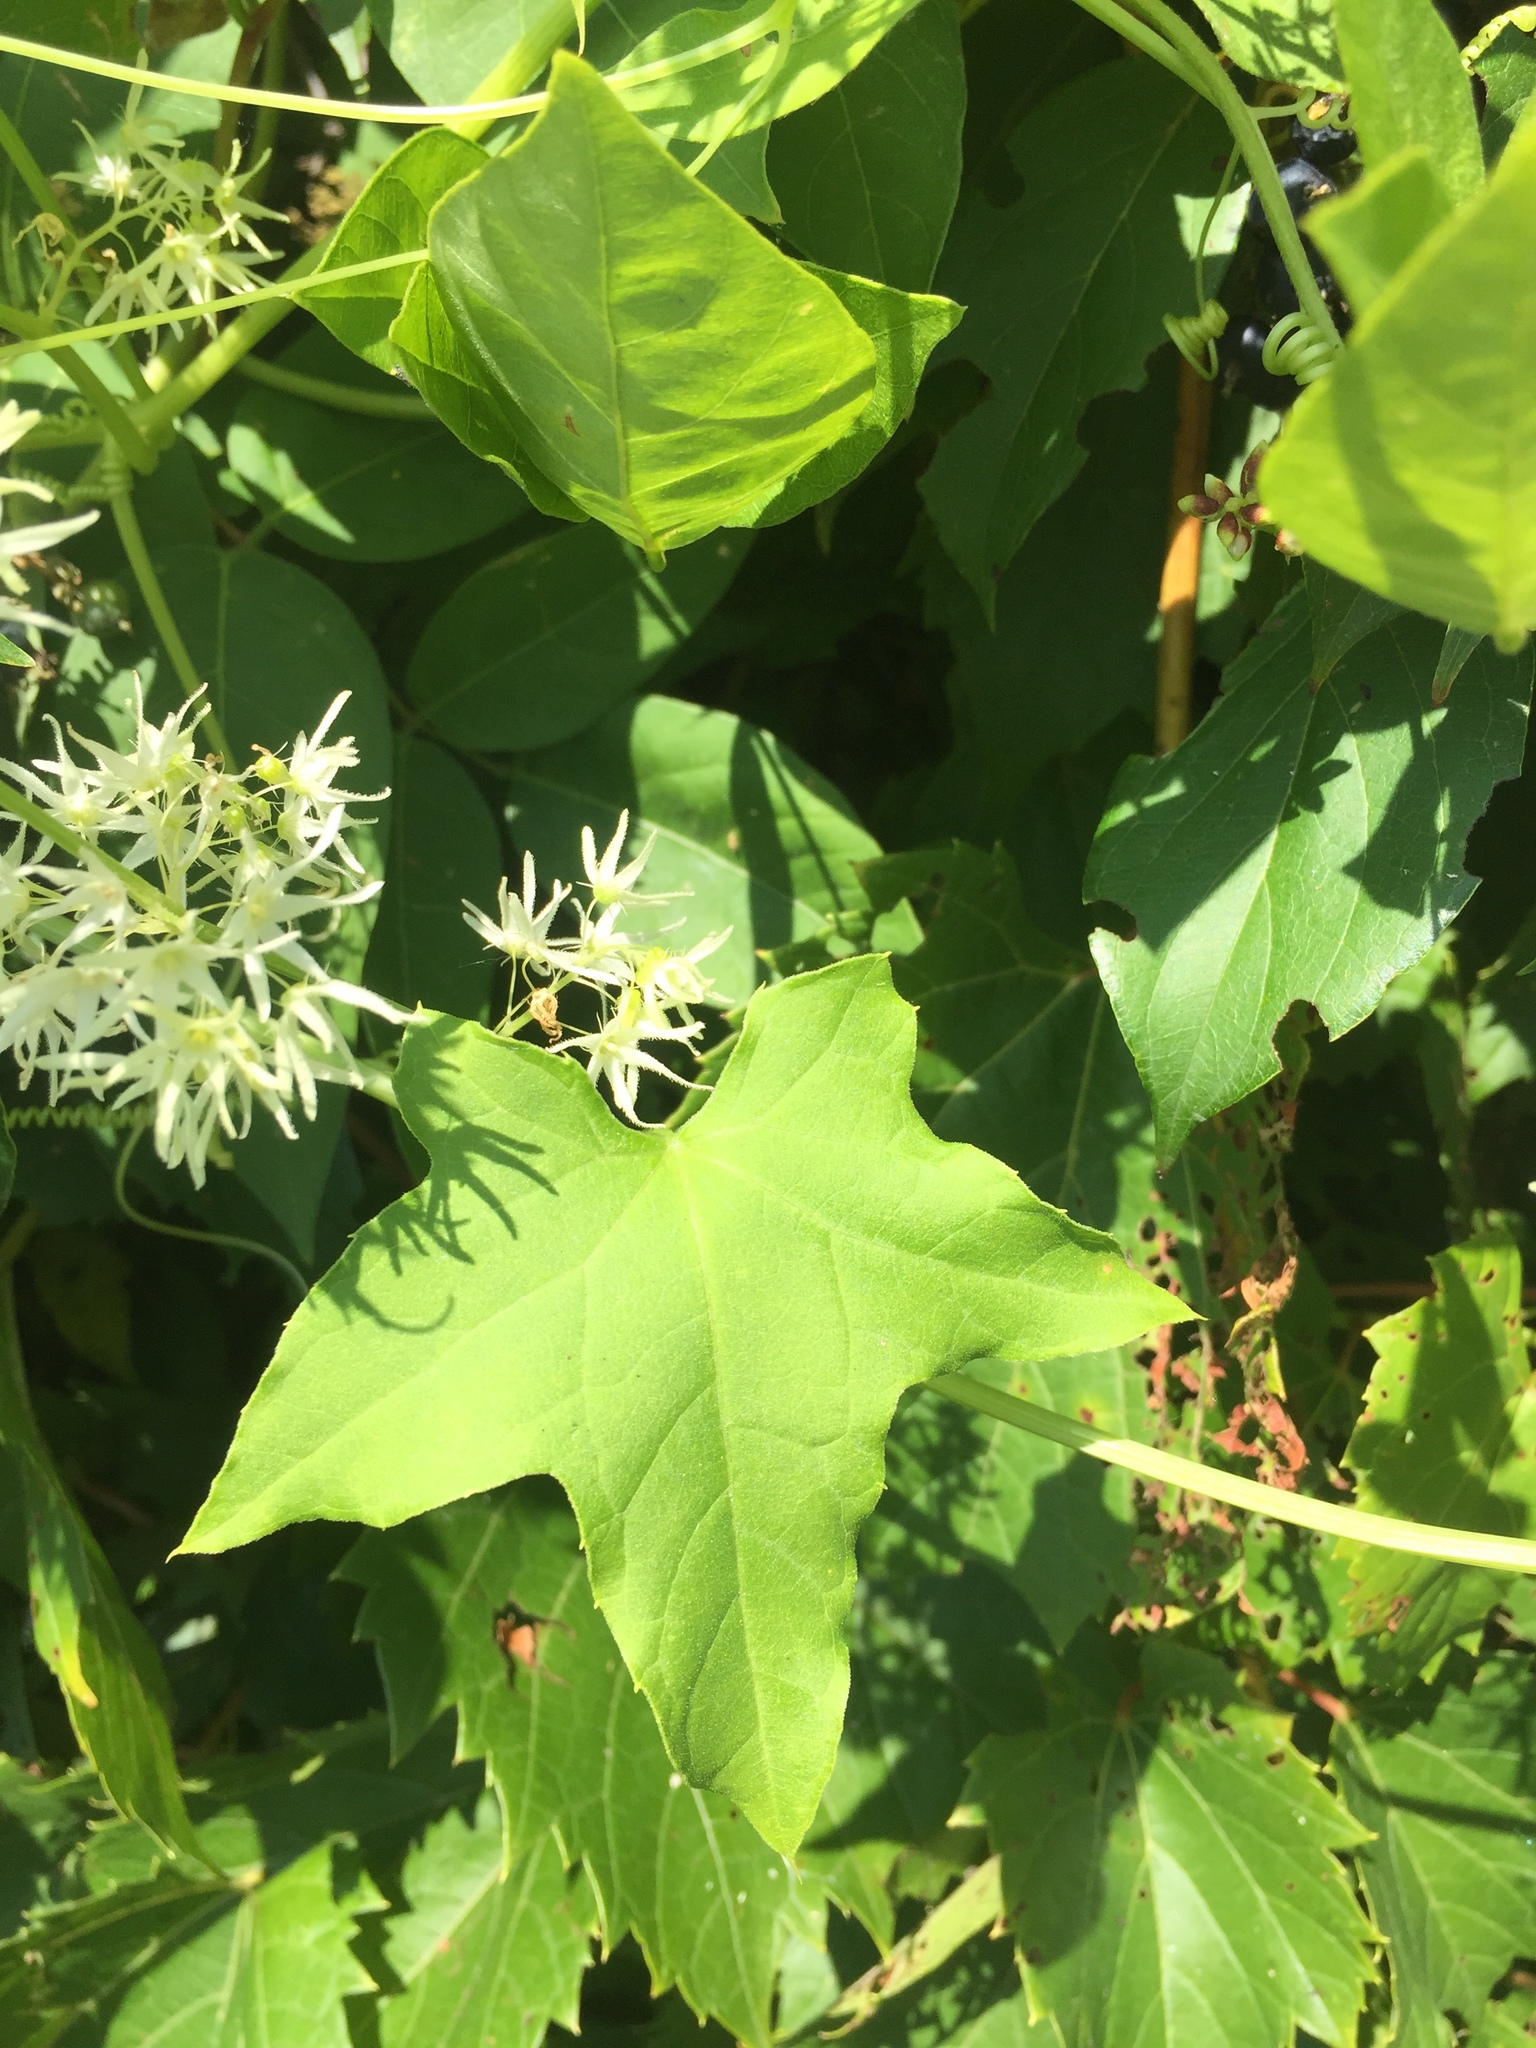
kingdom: Plantae
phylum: Tracheophyta
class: Magnoliopsida
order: Cucurbitales
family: Cucurbitaceae
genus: Echinocystis
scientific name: Echinocystis lobata
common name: Wild cucumber
